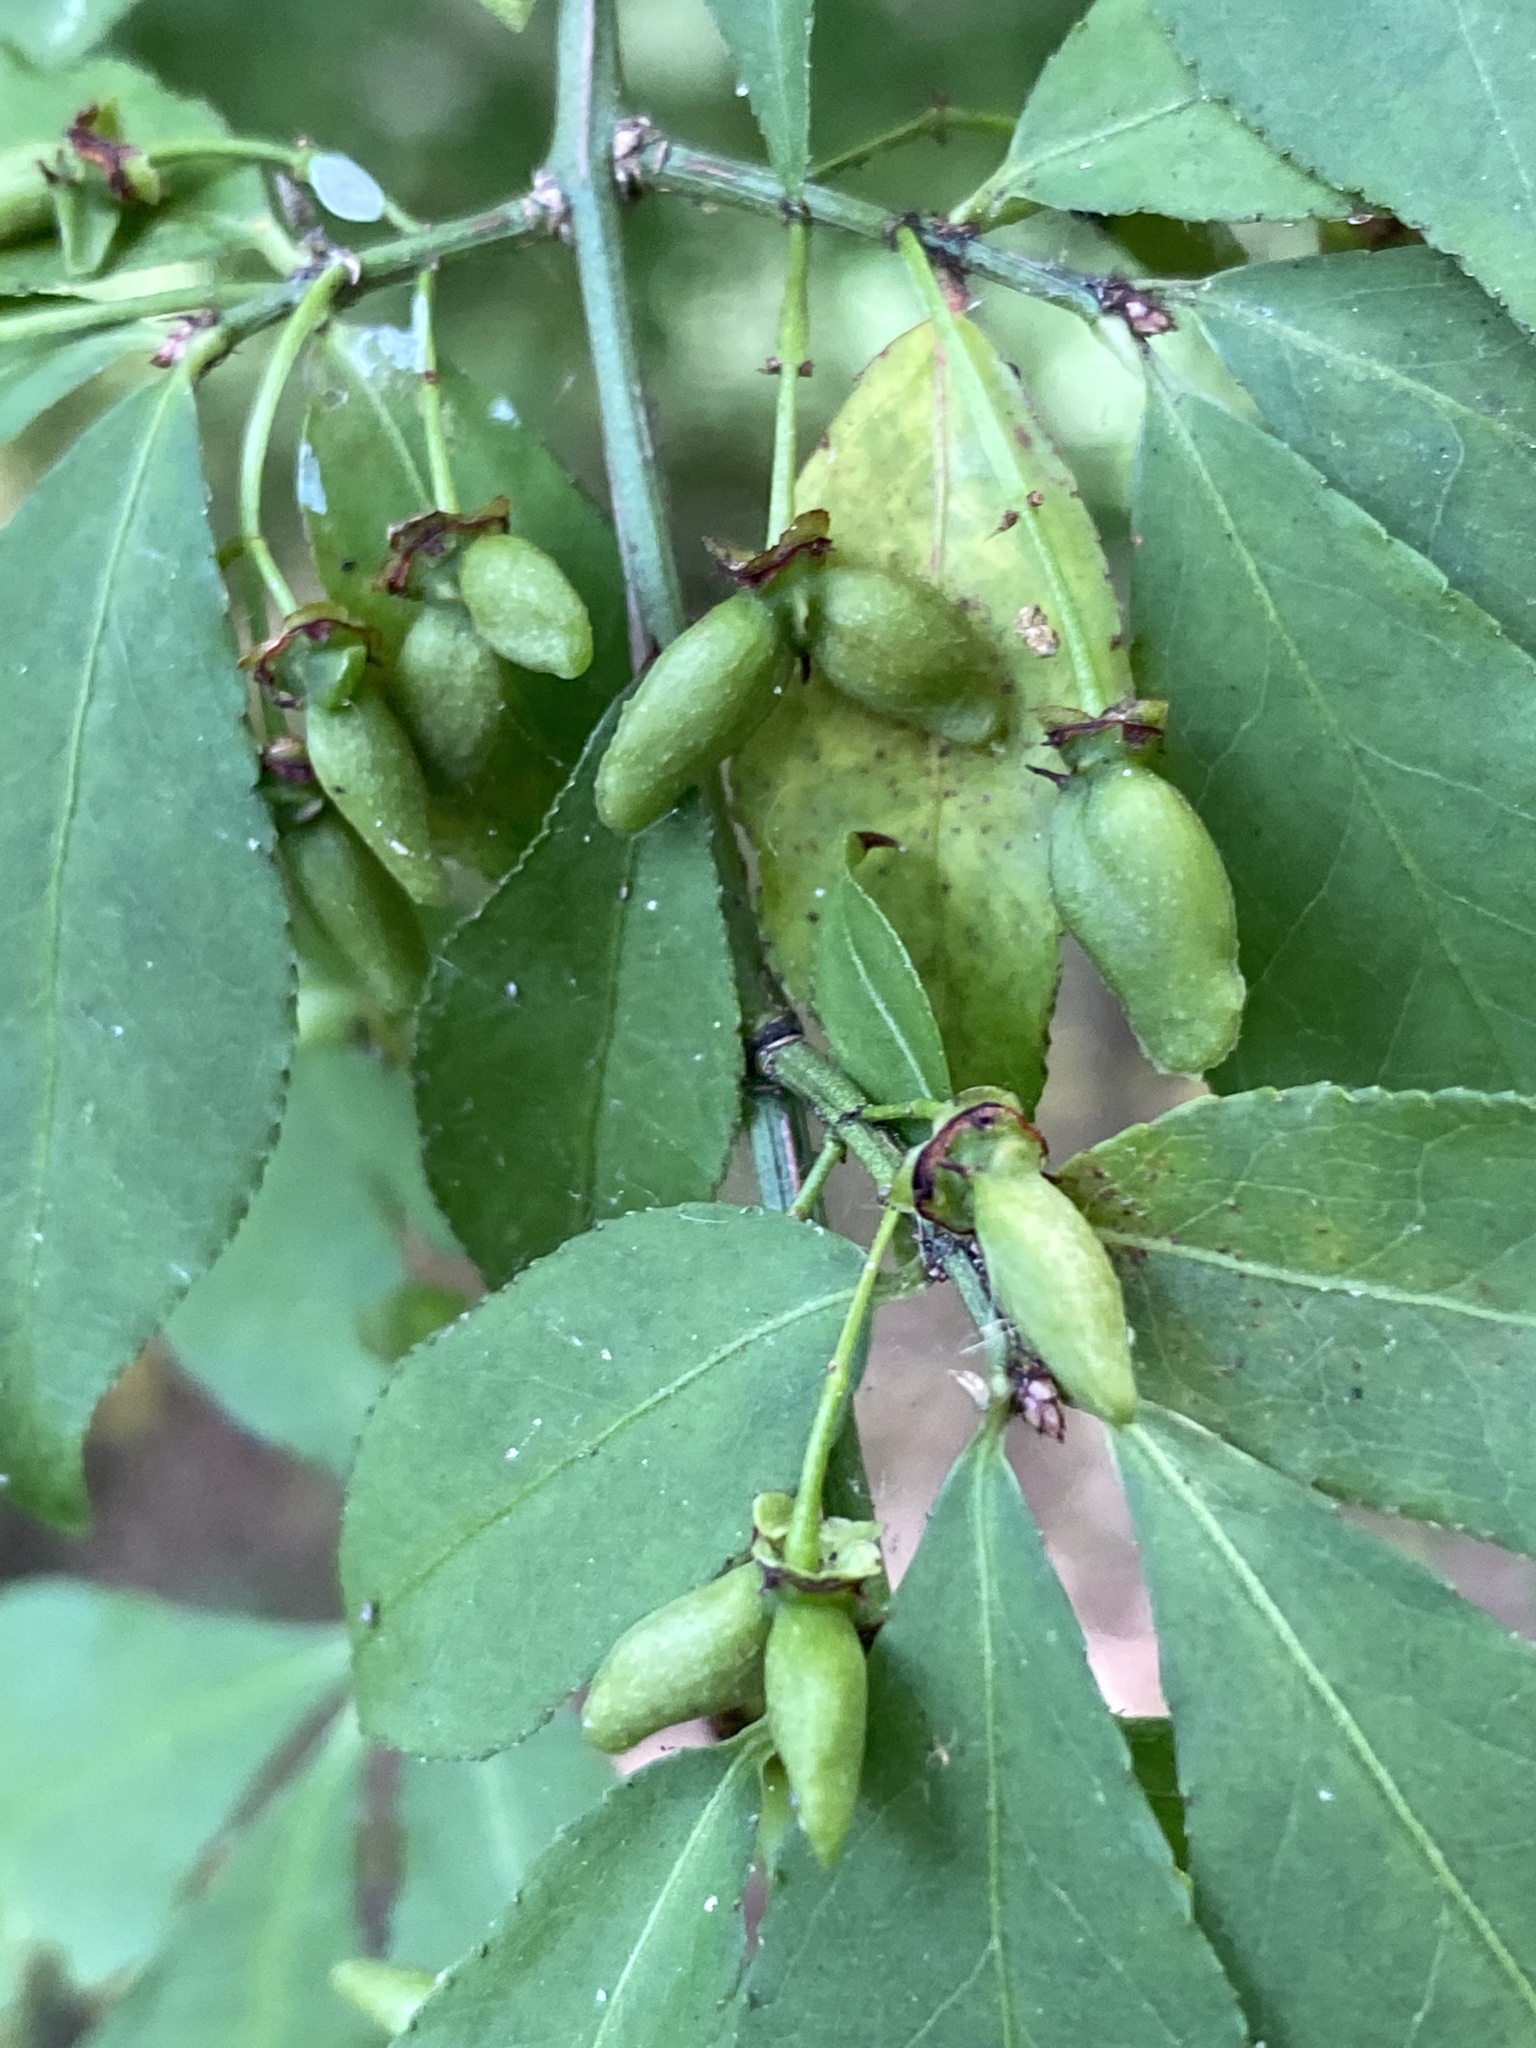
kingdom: Plantae
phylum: Tracheophyta
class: Magnoliopsida
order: Celastrales
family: Celastraceae
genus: Euonymus
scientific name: Euonymus alatus
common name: Winged euonymus
